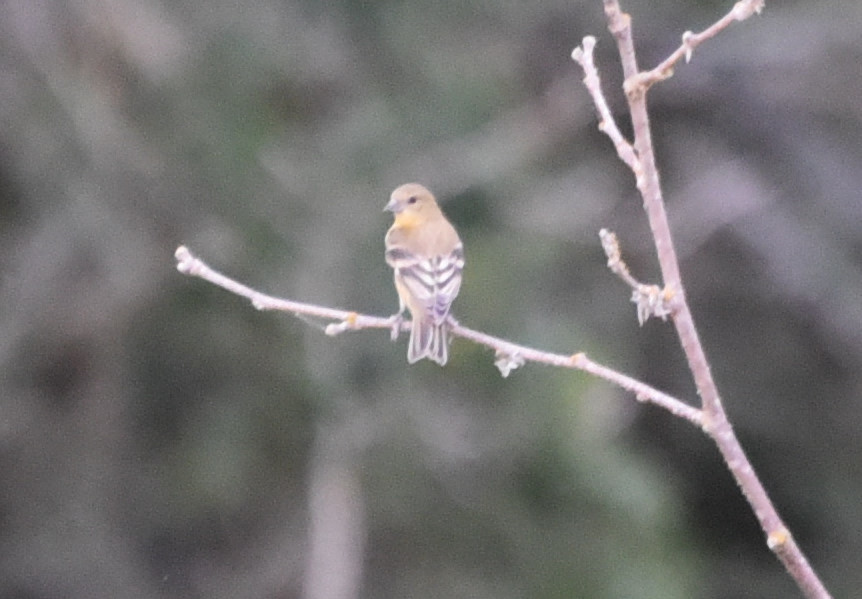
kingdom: Animalia
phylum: Chordata
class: Aves
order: Passeriformes
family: Fringillidae
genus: Spinus
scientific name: Spinus psaltria
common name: Lesser goldfinch
